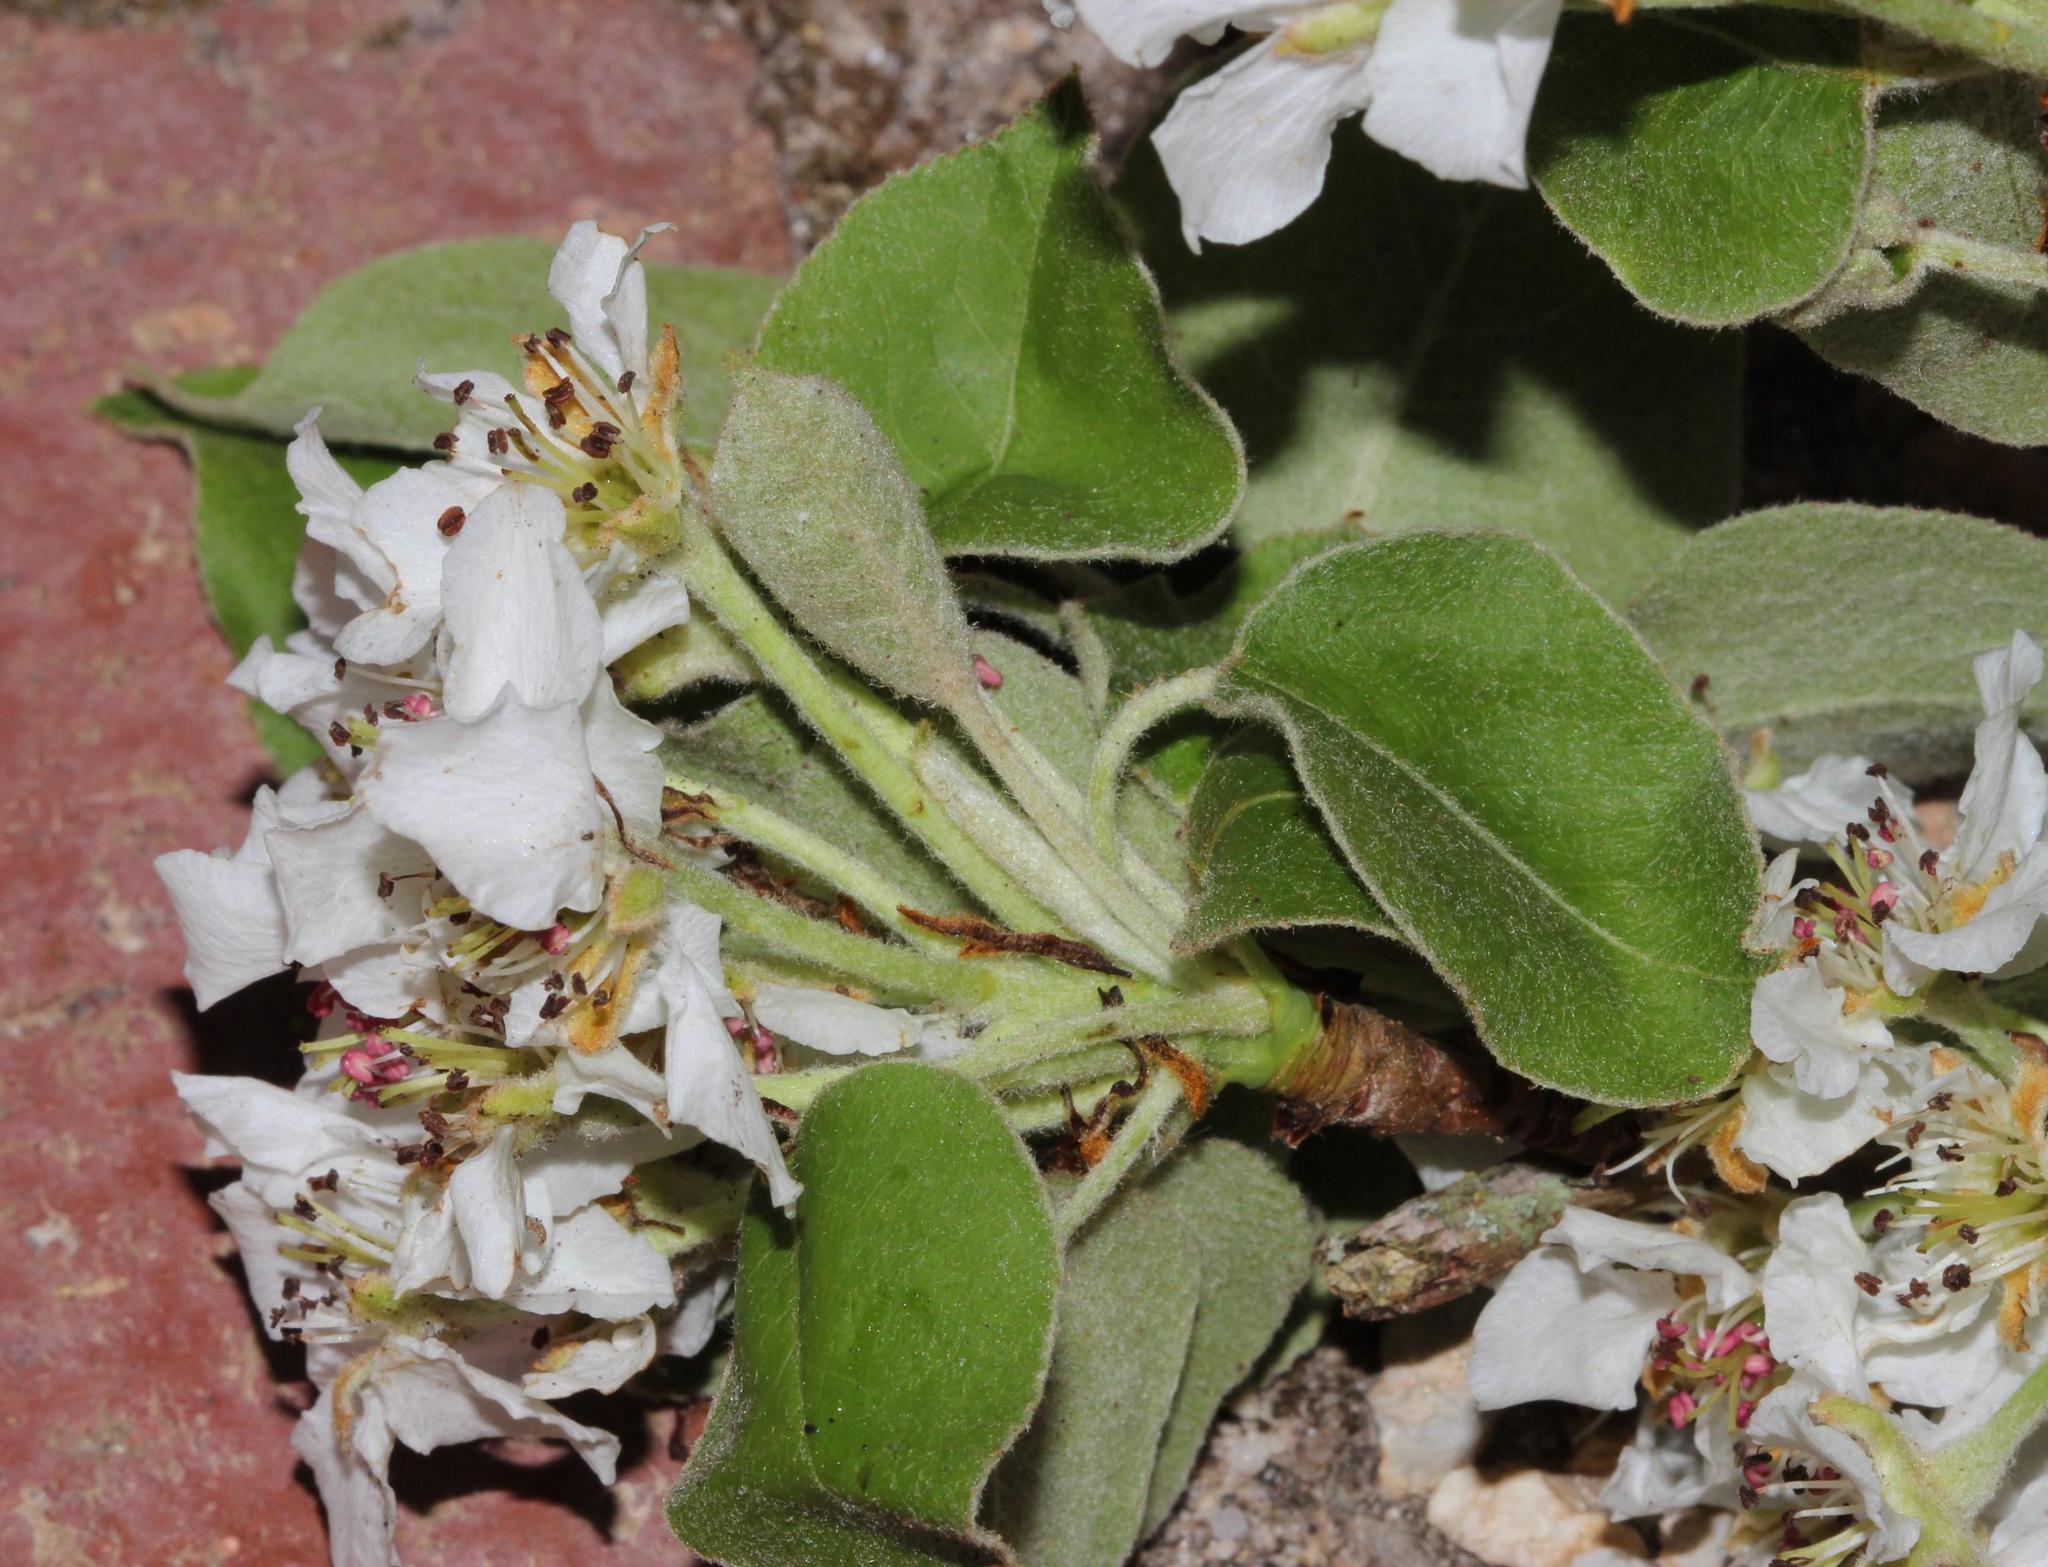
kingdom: Plantae
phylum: Tracheophyta
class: Magnoliopsida
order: Rosales
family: Rosaceae
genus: Pyrus
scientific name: Pyrus communis
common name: Pear
